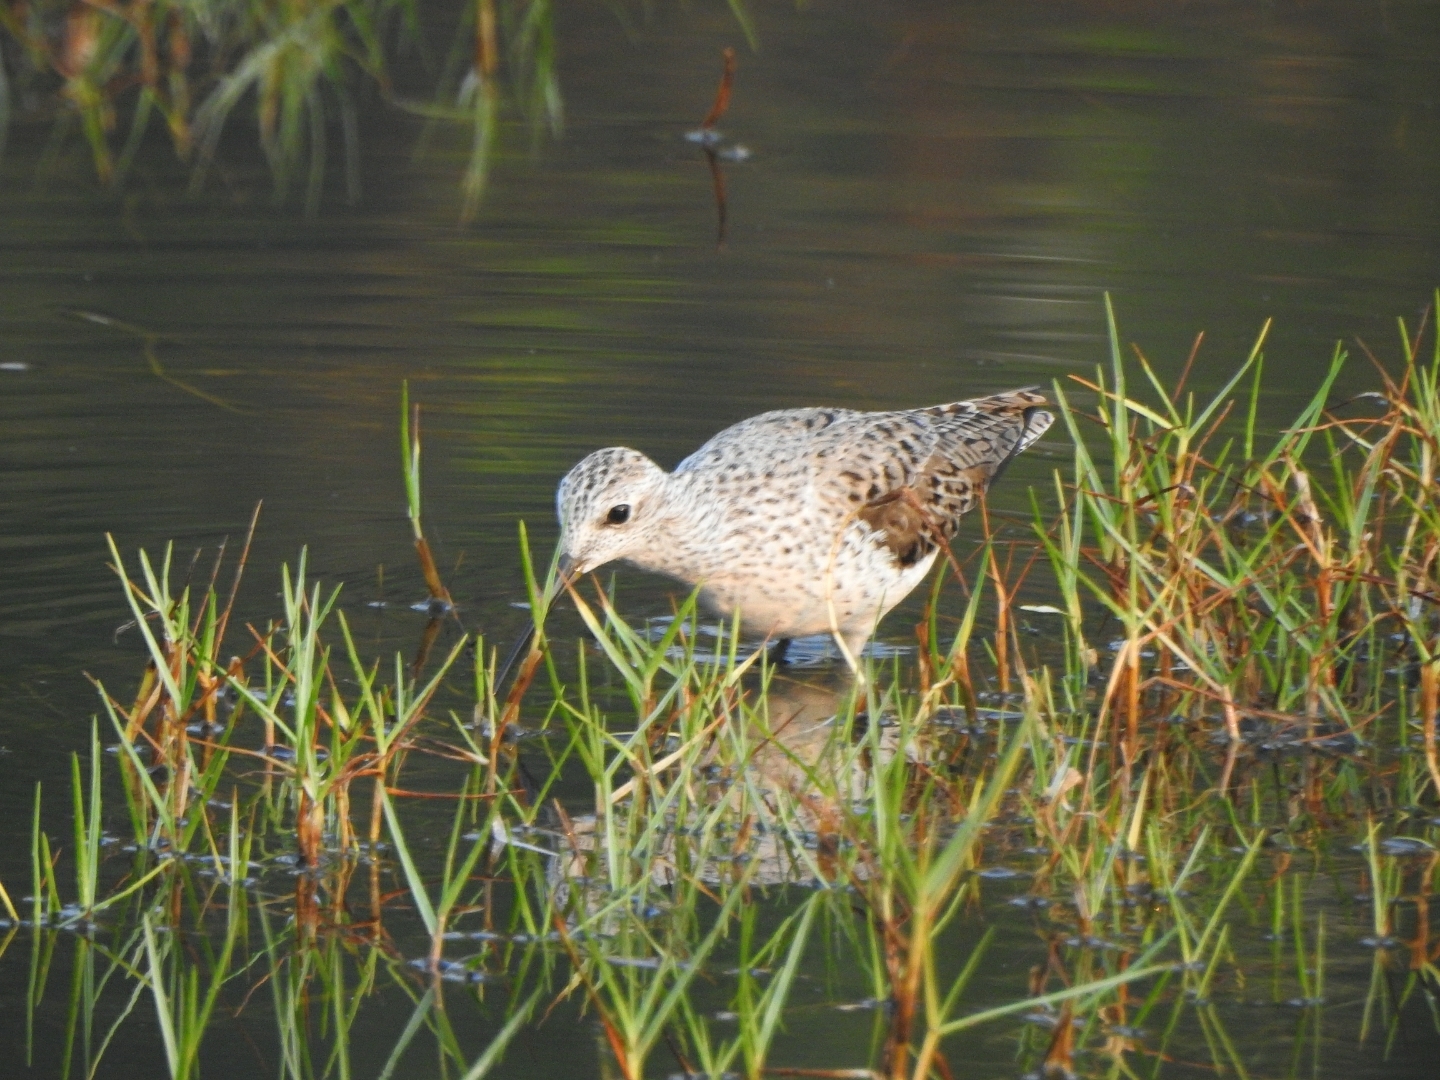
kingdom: Animalia
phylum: Chordata
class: Aves
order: Charadriiformes
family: Scolopacidae
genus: Tringa
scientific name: Tringa stagnatilis
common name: Marsh sandpiper
